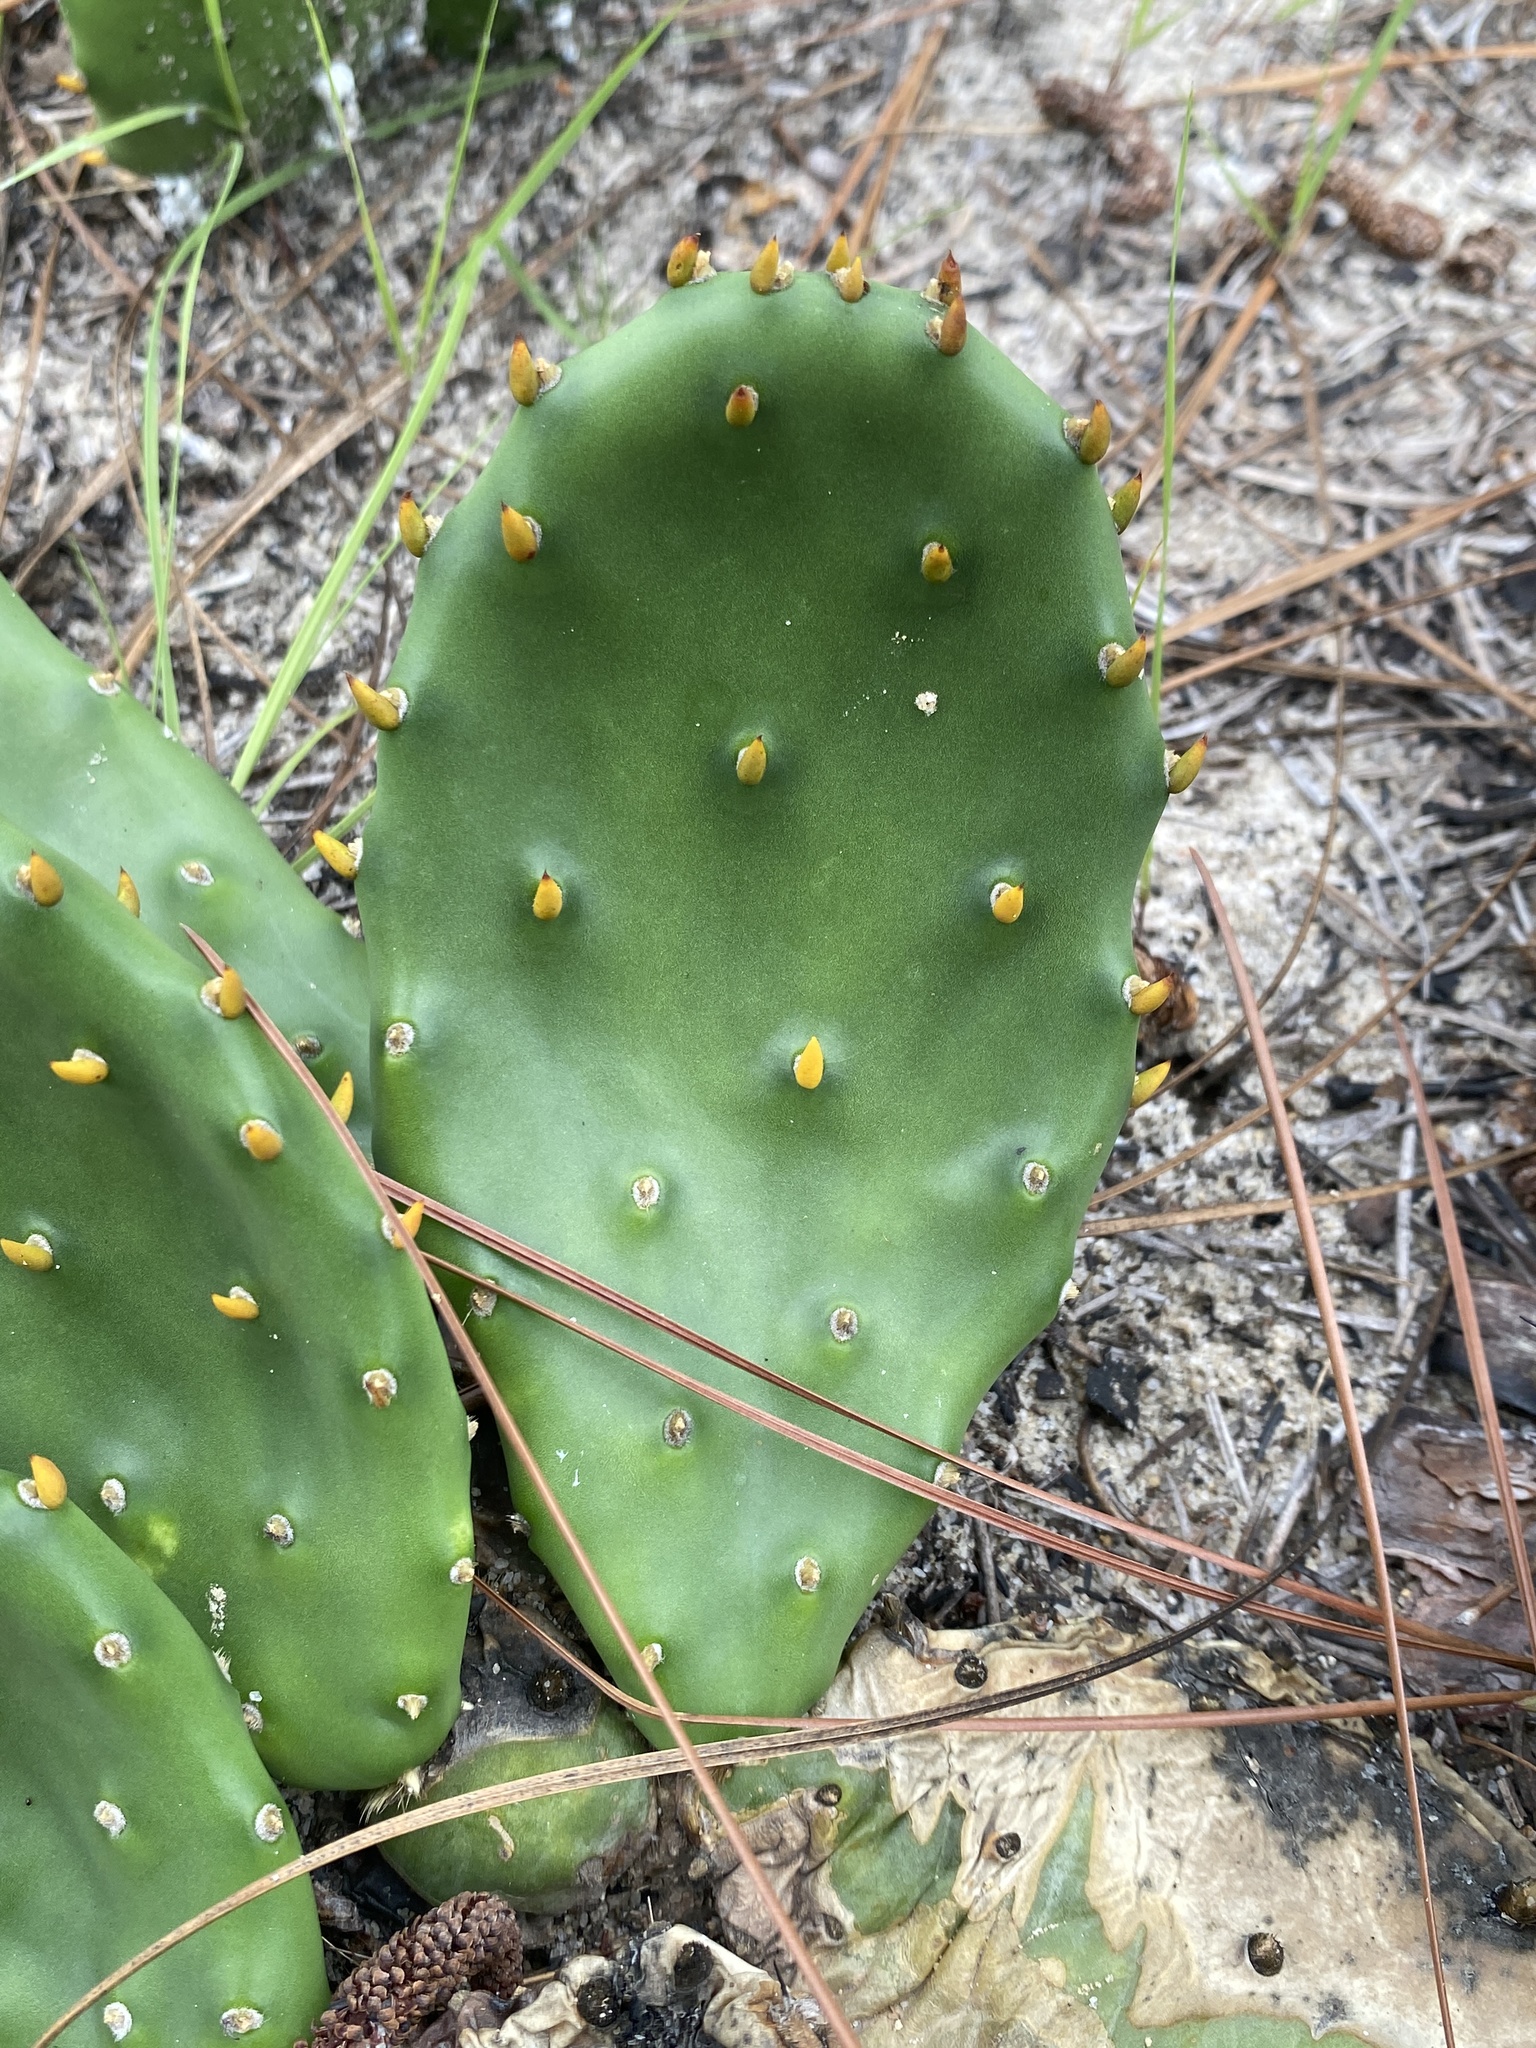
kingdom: Plantae
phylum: Tracheophyta
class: Magnoliopsida
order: Caryophyllales
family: Cactaceae
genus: Opuntia
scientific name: Opuntia mesacantha
